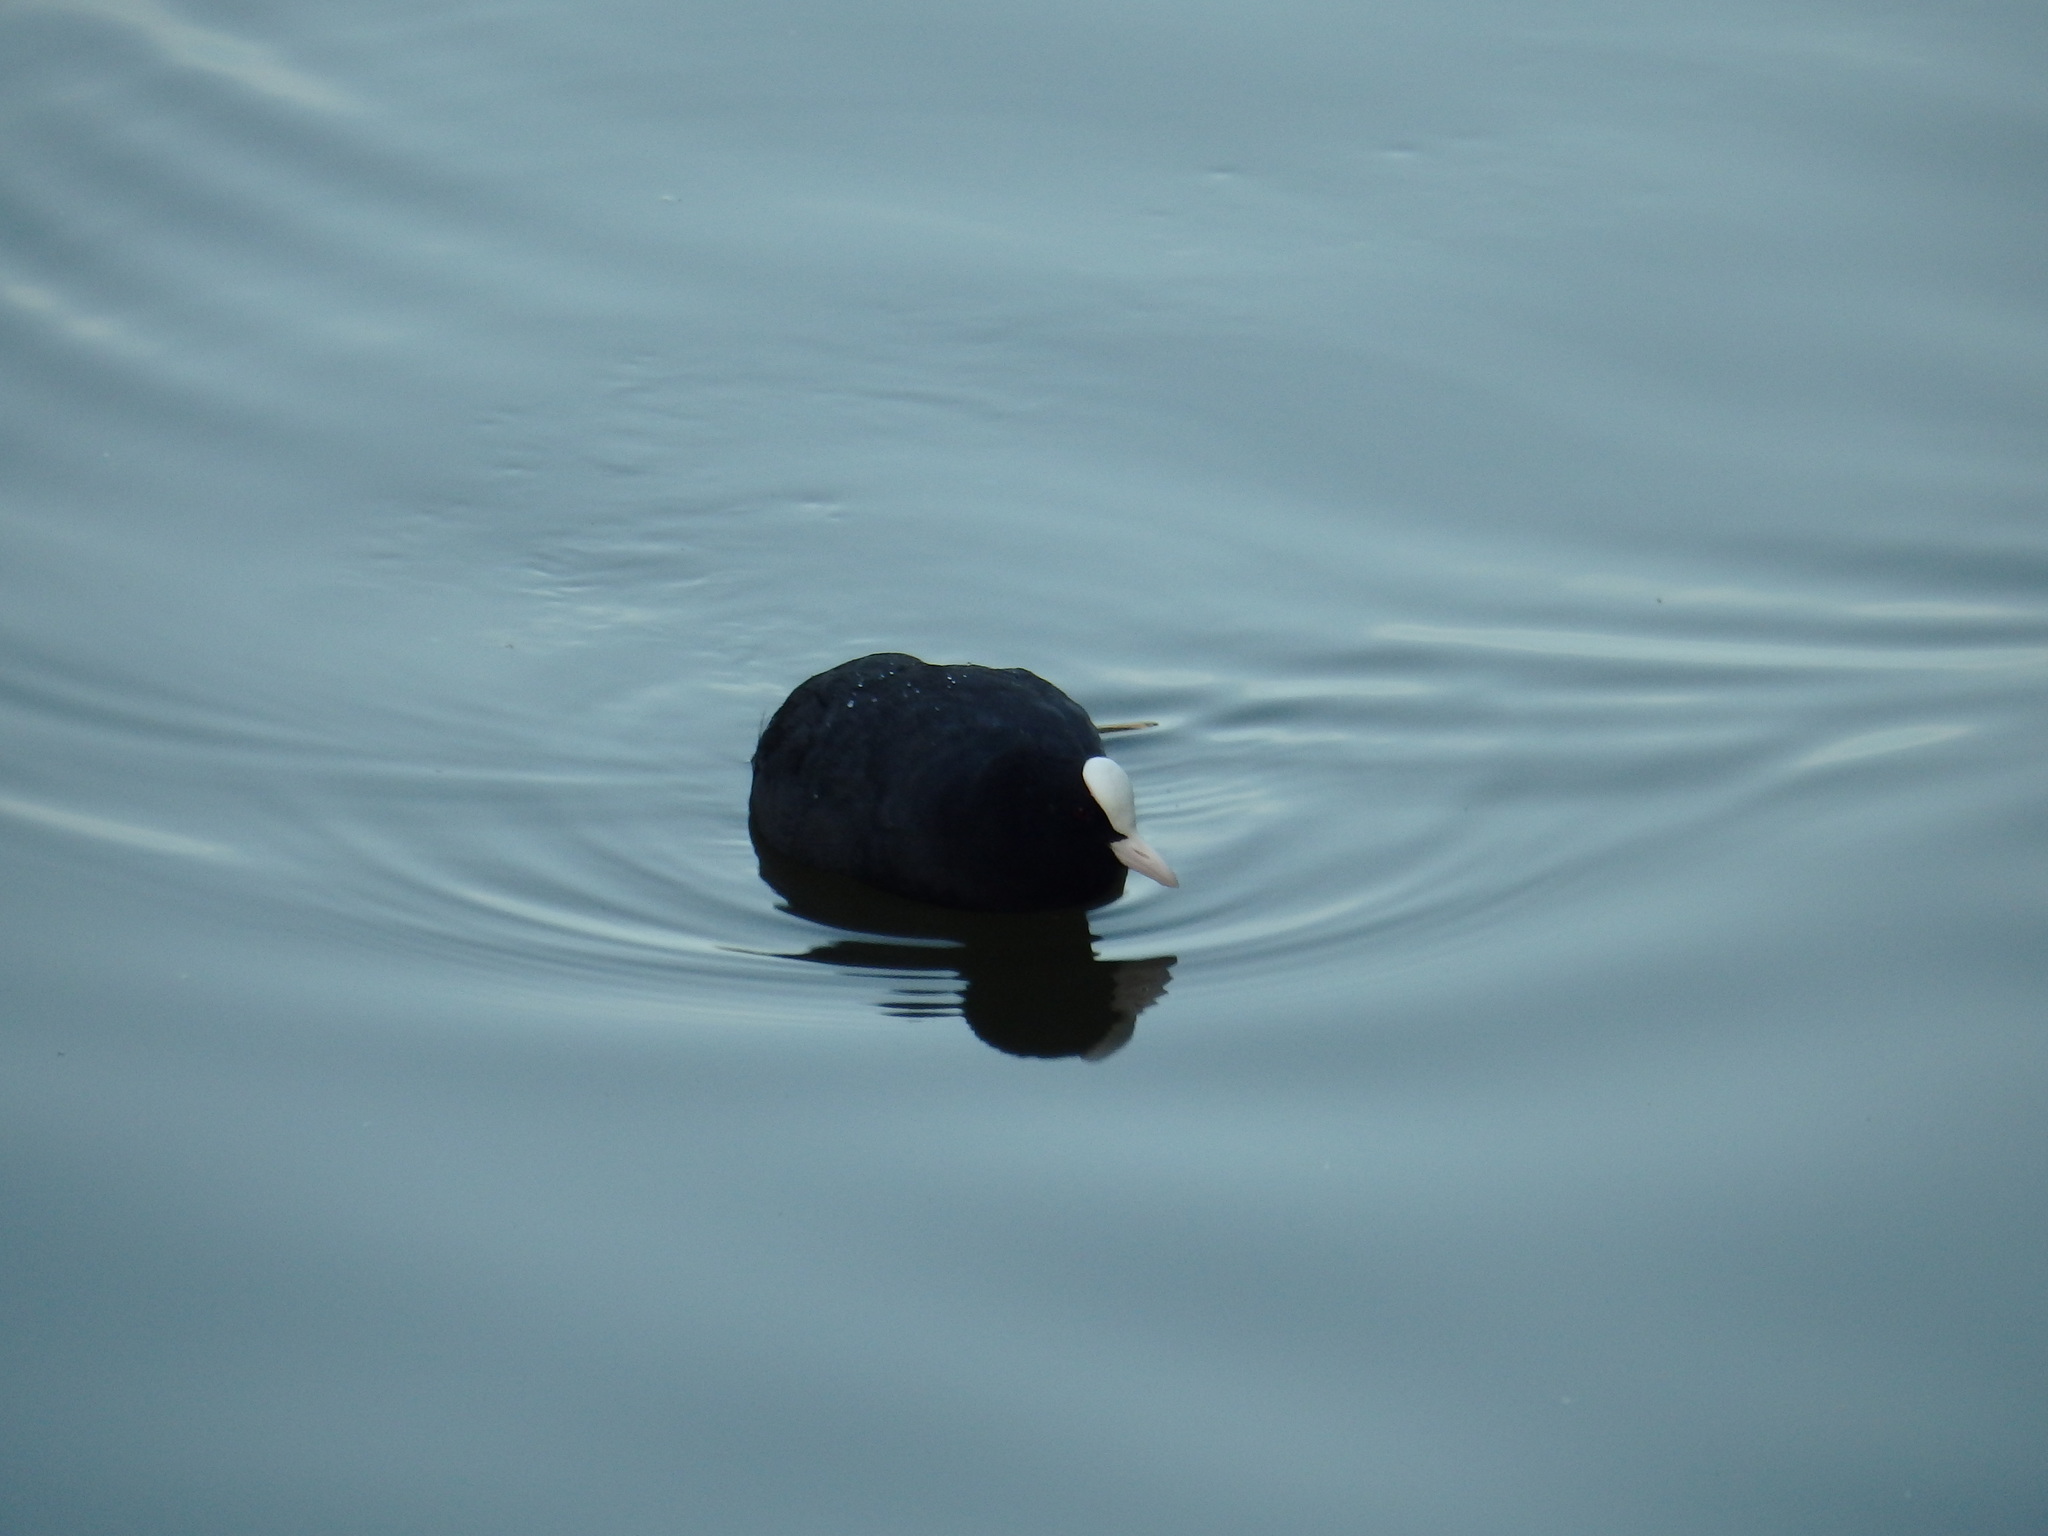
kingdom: Animalia
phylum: Chordata
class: Aves
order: Gruiformes
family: Rallidae
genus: Fulica
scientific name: Fulica atra
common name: Eurasian coot
